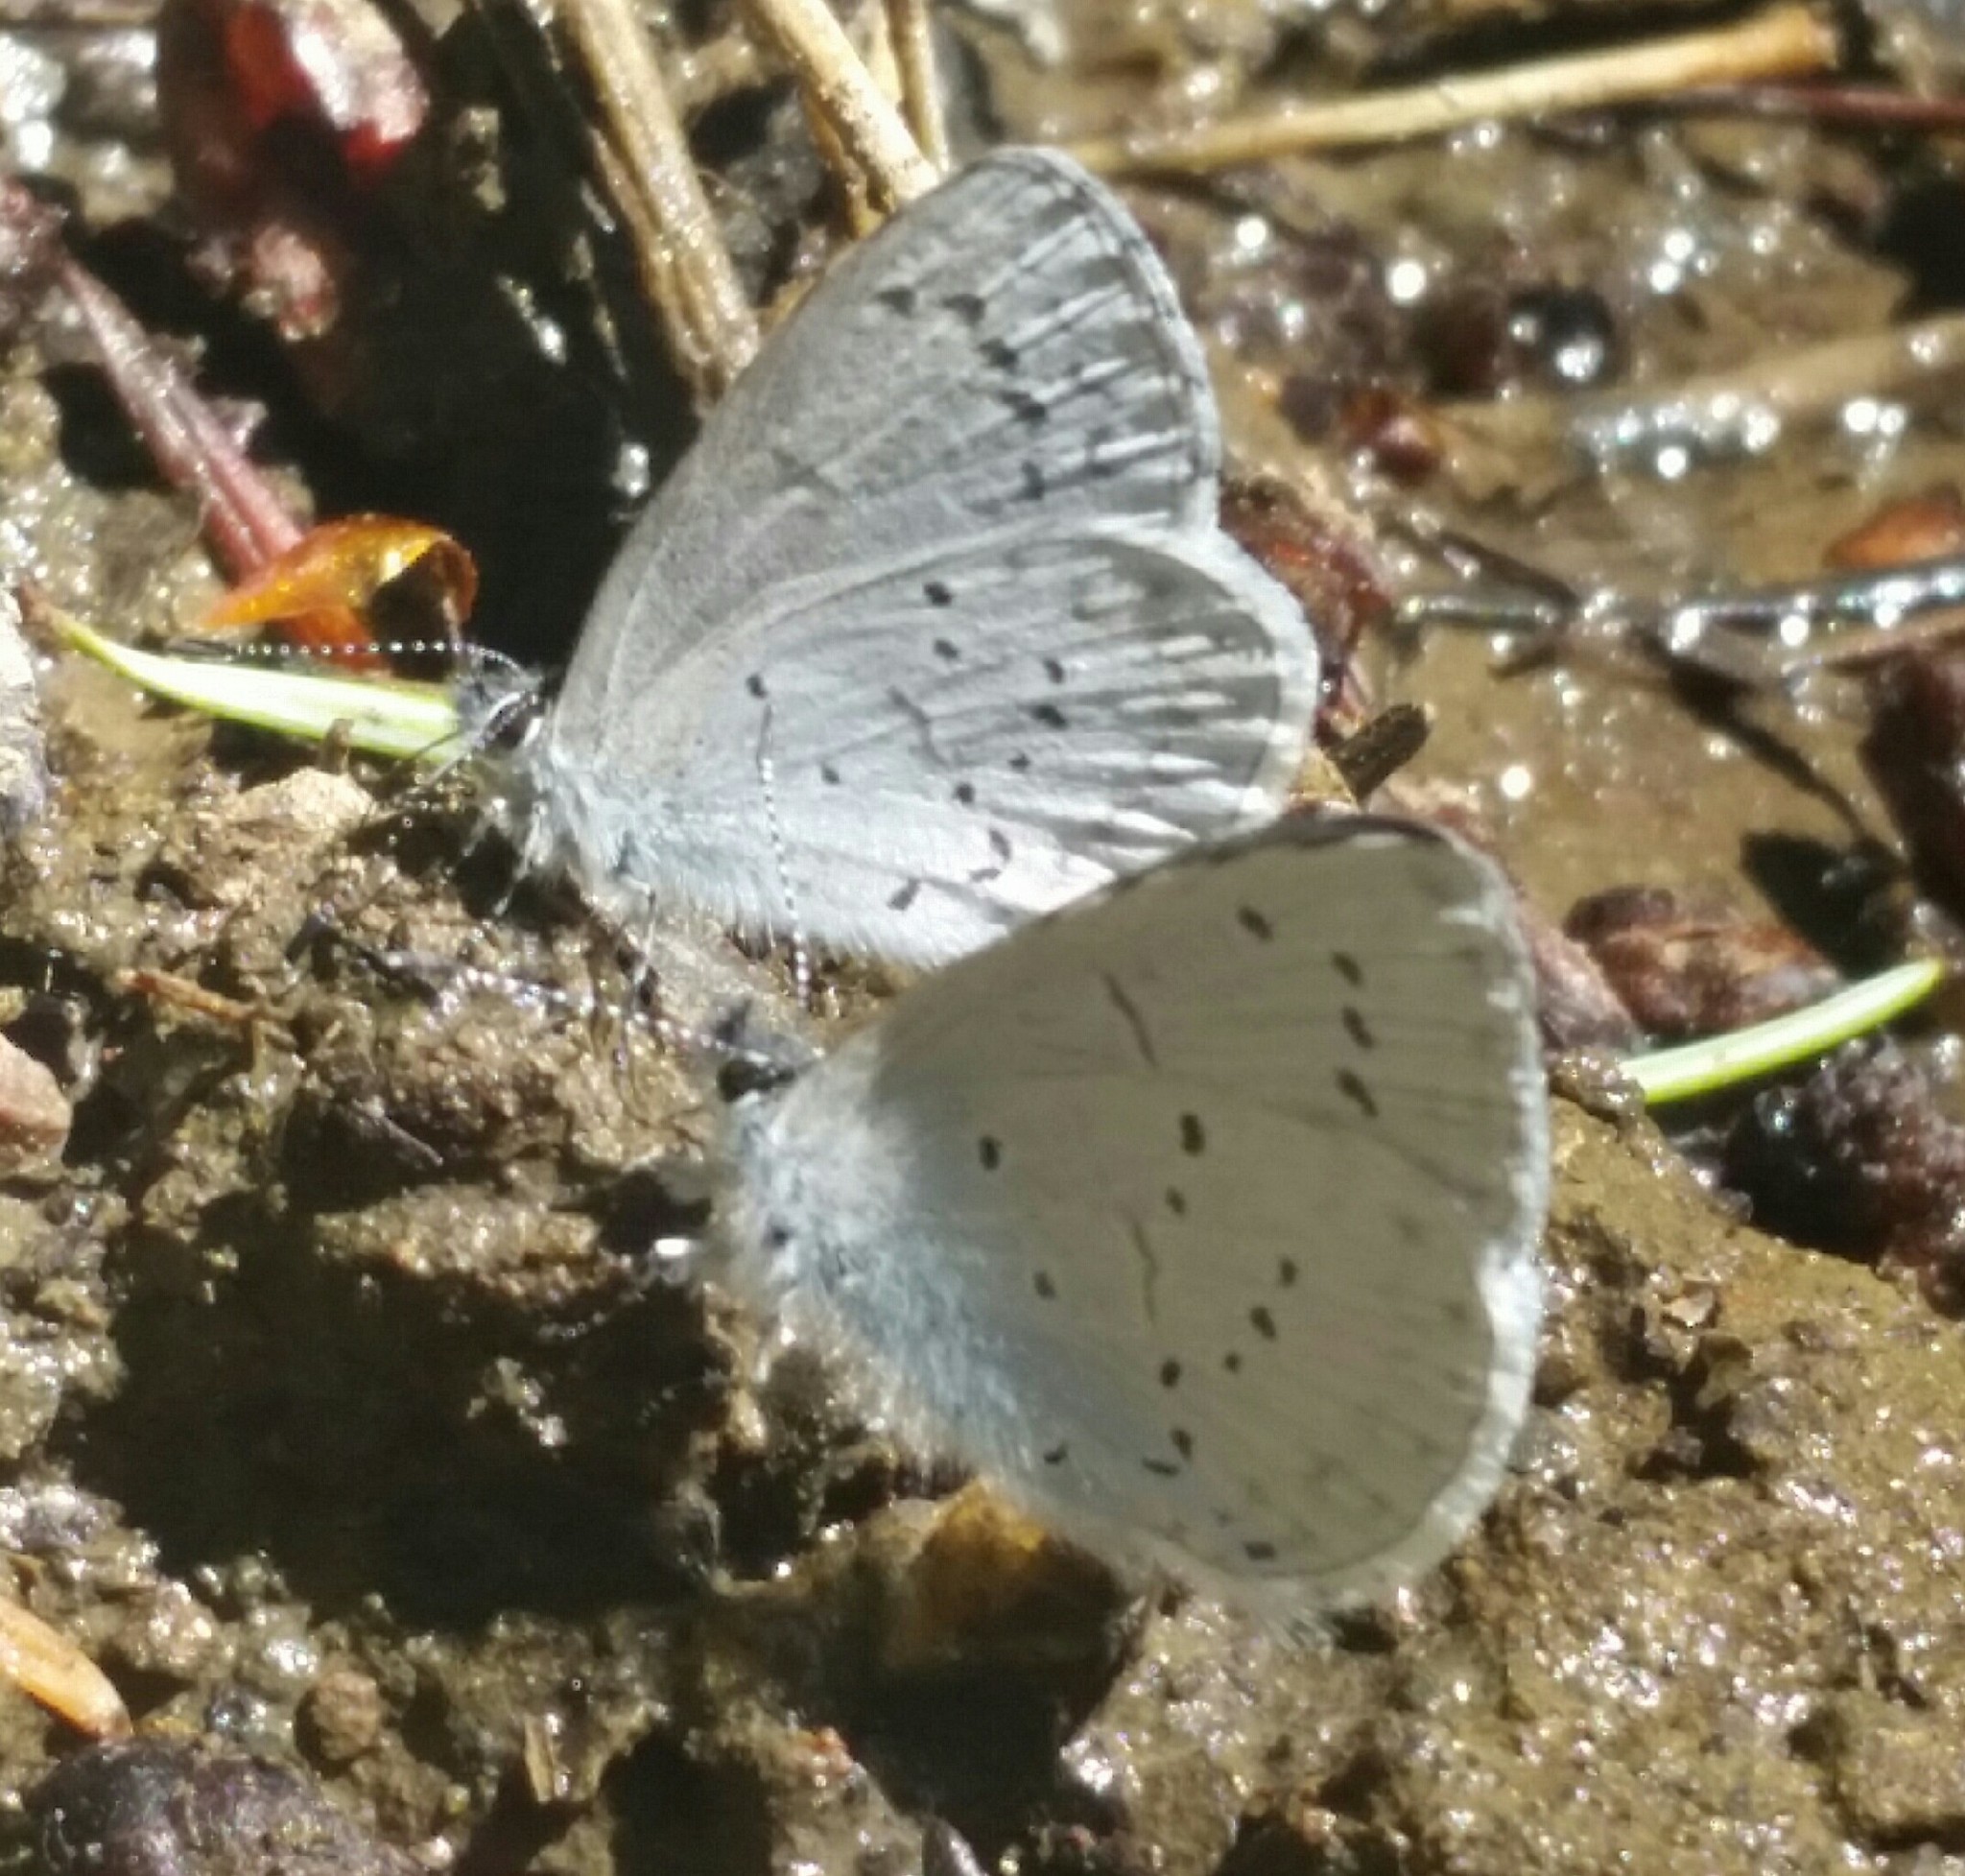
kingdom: Animalia
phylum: Arthropoda
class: Insecta
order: Lepidoptera
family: Lycaenidae
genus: Celastrina
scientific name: Celastrina ladon
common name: Spring azure
